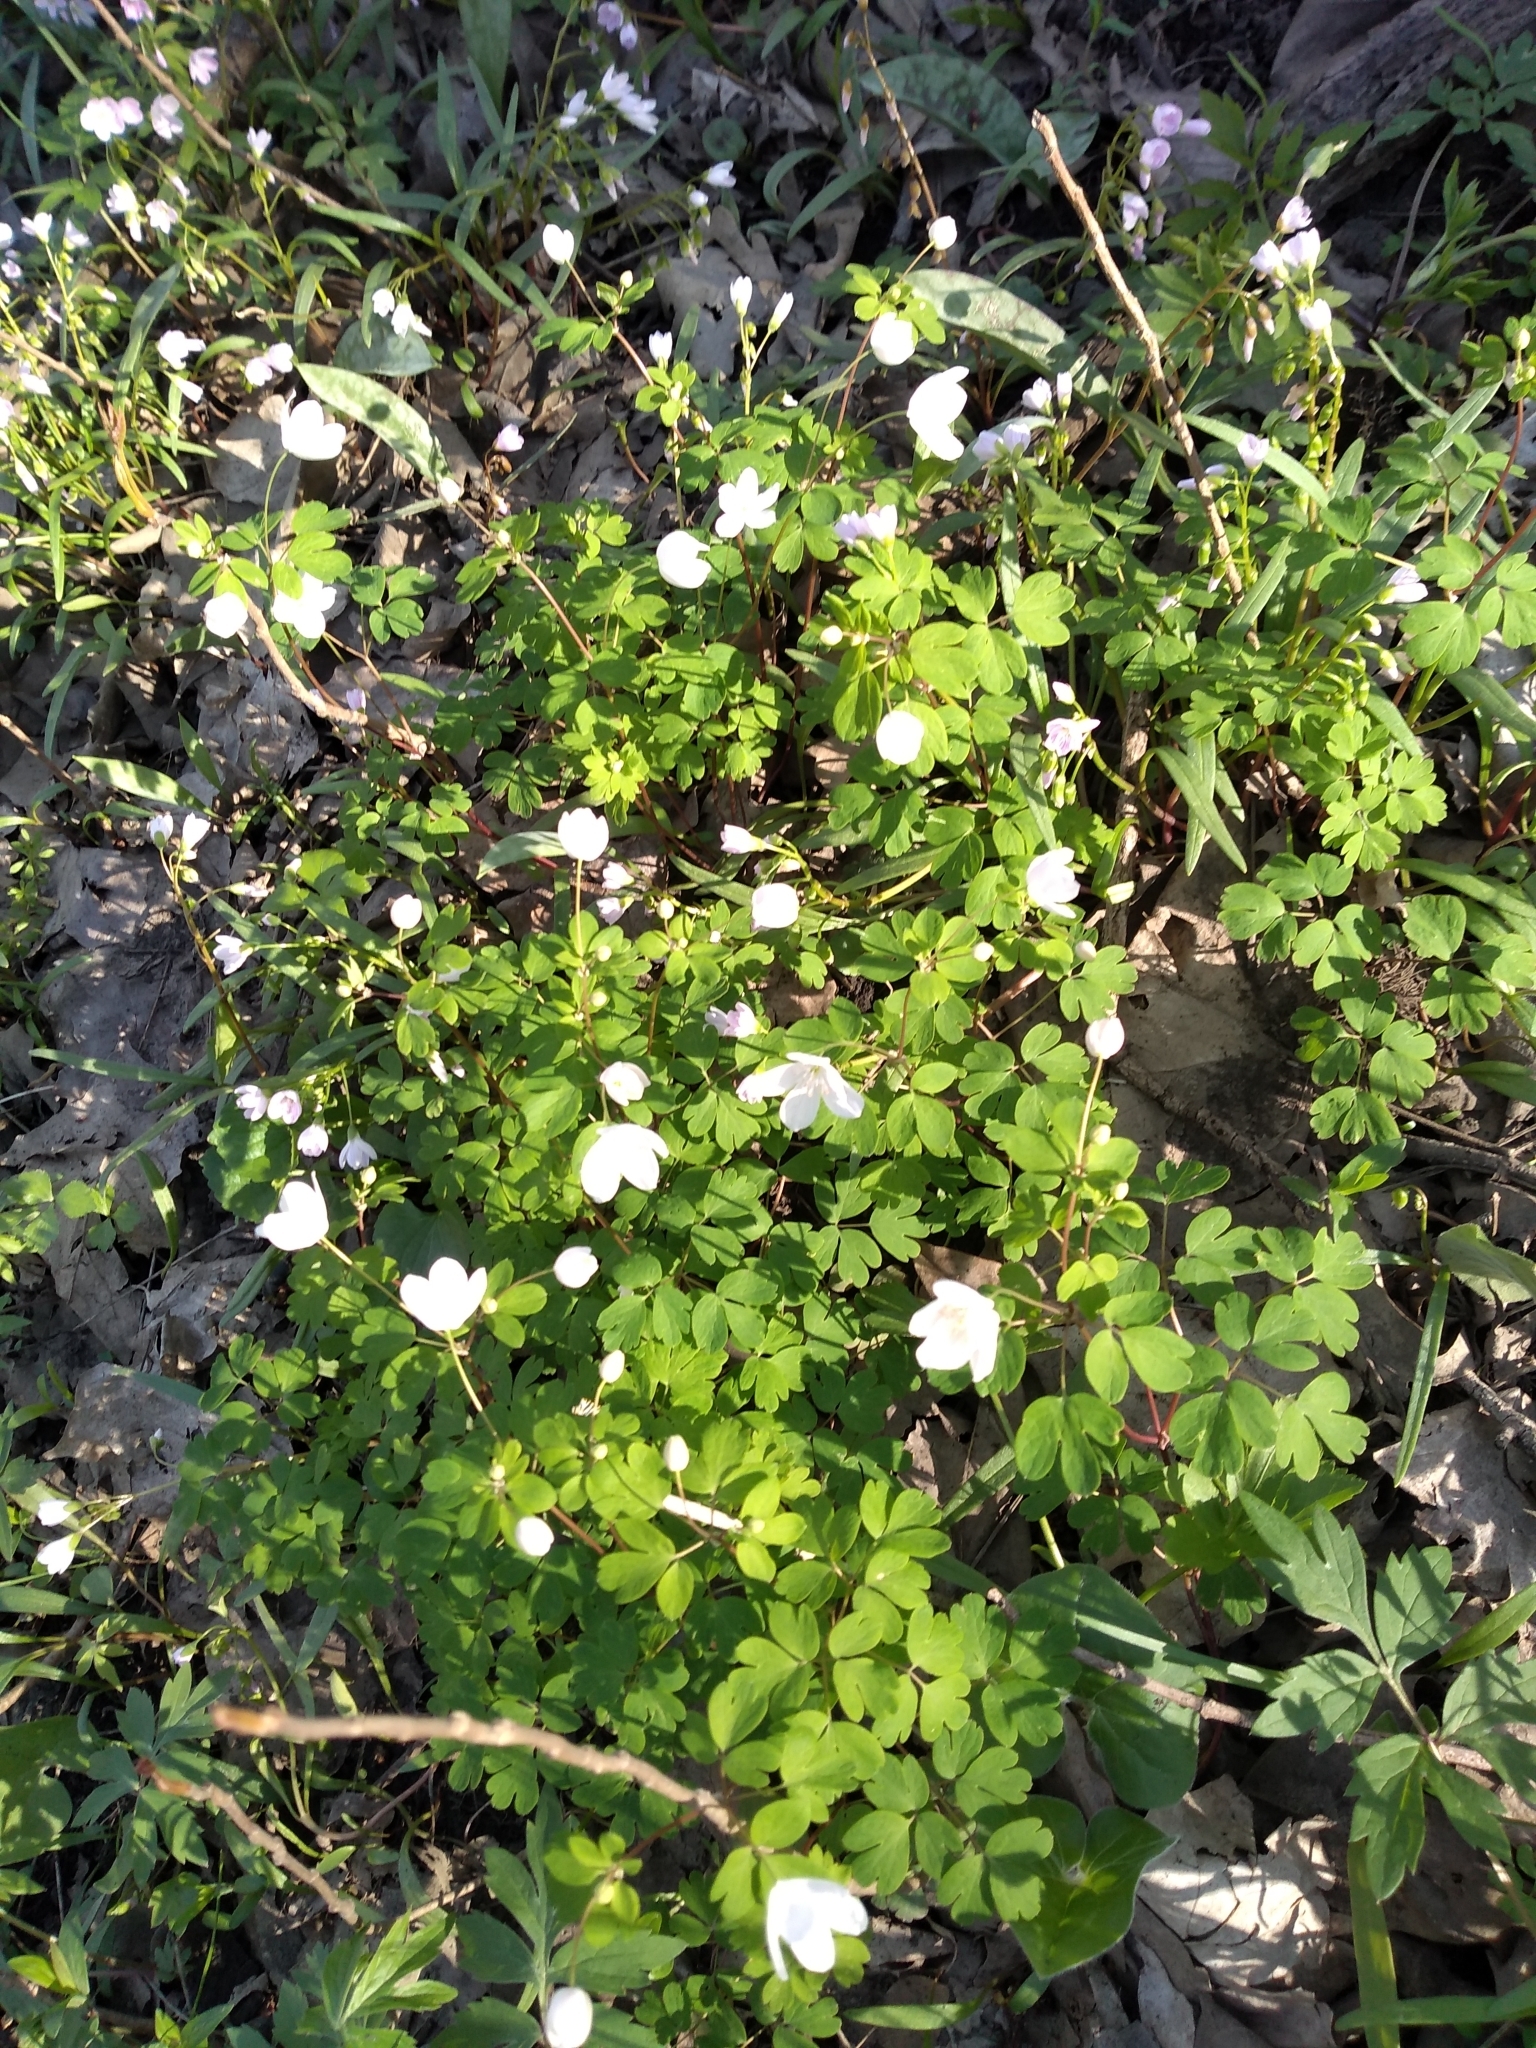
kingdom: Plantae
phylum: Tracheophyta
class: Magnoliopsida
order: Ranunculales
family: Ranunculaceae
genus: Enemion
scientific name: Enemion biternatum
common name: Eastern false rue-anemone
